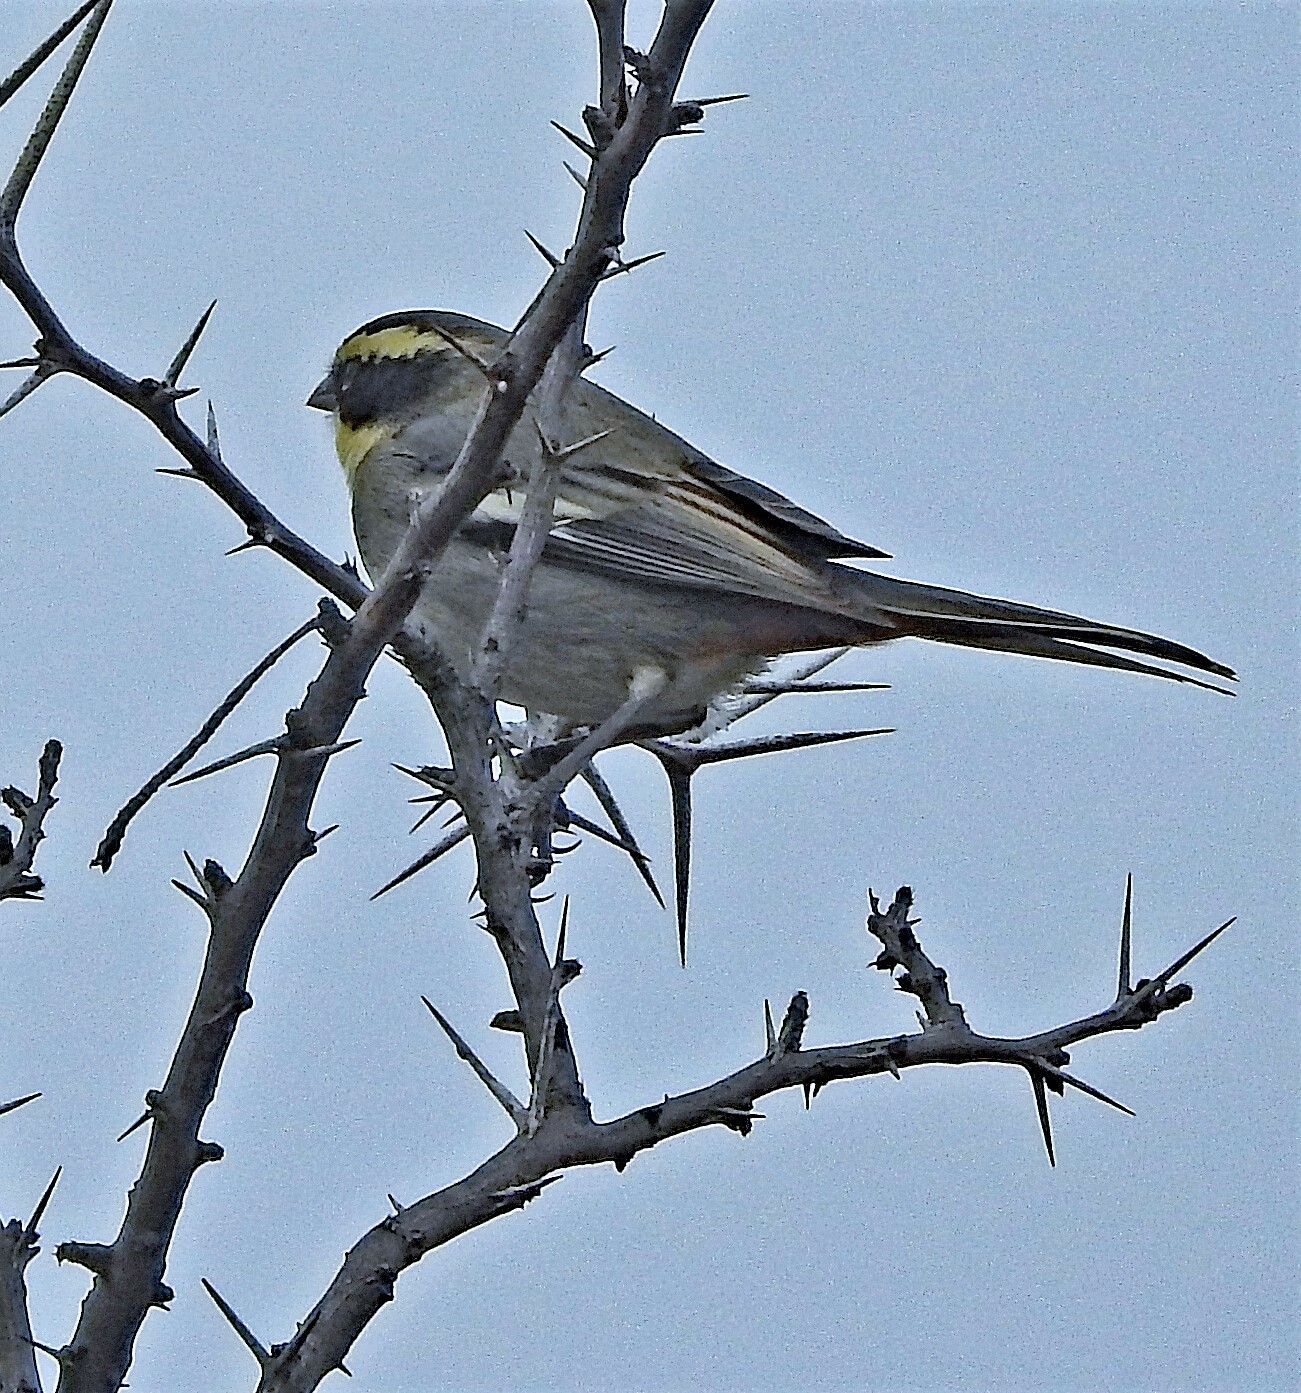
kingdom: Animalia
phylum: Chordata
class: Aves
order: Passeriformes
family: Thraupidae
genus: Microspingus
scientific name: Microspingus torquatus
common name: Ringed warbling-finch
